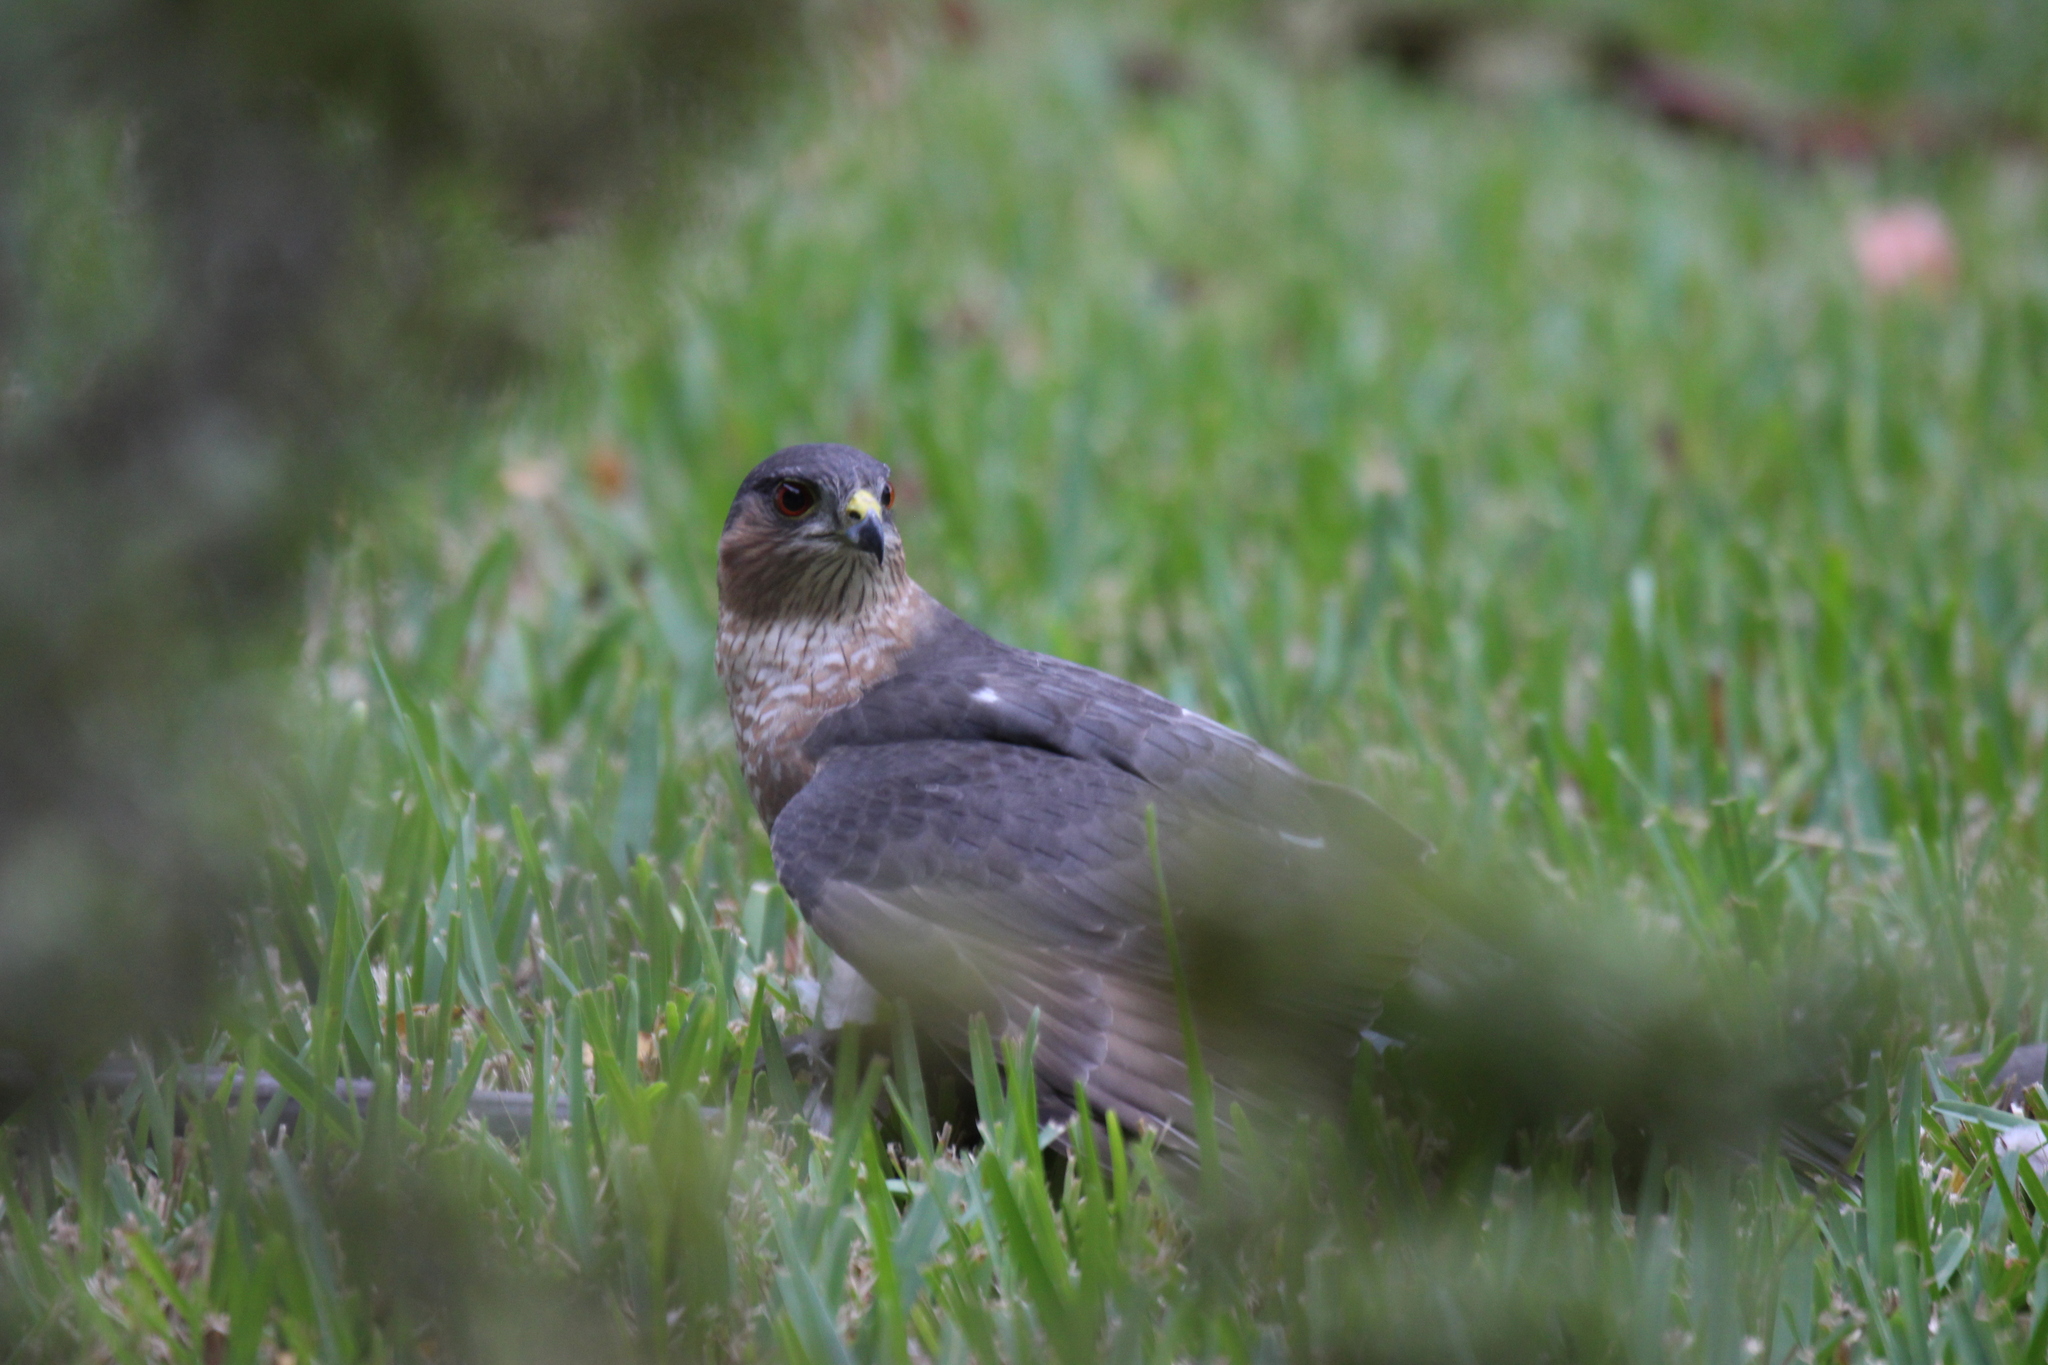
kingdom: Animalia
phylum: Chordata
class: Aves
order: Accipitriformes
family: Accipitridae
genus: Accipiter
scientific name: Accipiter striatus
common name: Sharp-shinned hawk
